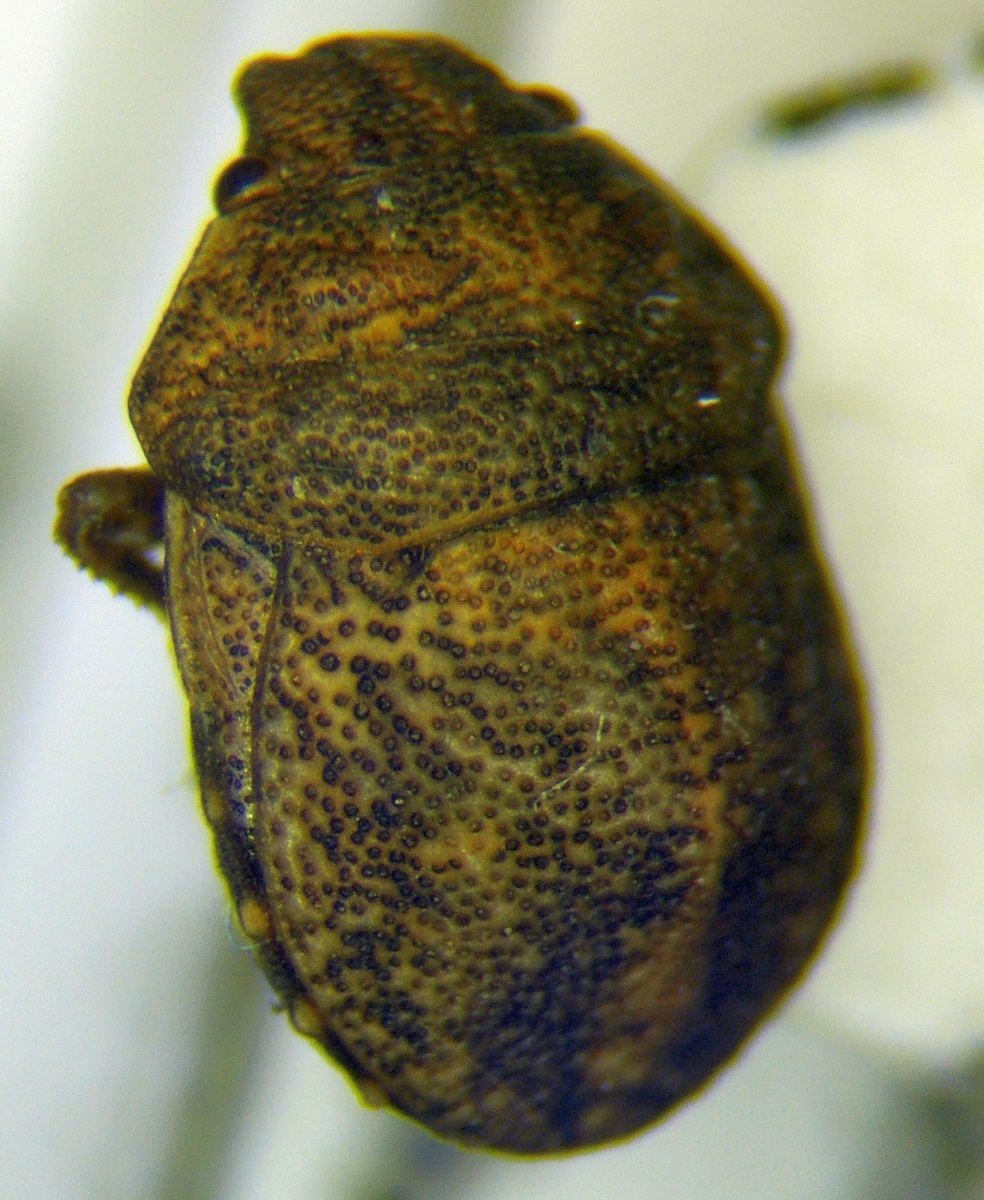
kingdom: Animalia
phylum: Arthropoda
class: Insecta
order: Hemiptera
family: Scutelleridae
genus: Psacasta
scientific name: Psacasta neglecta
